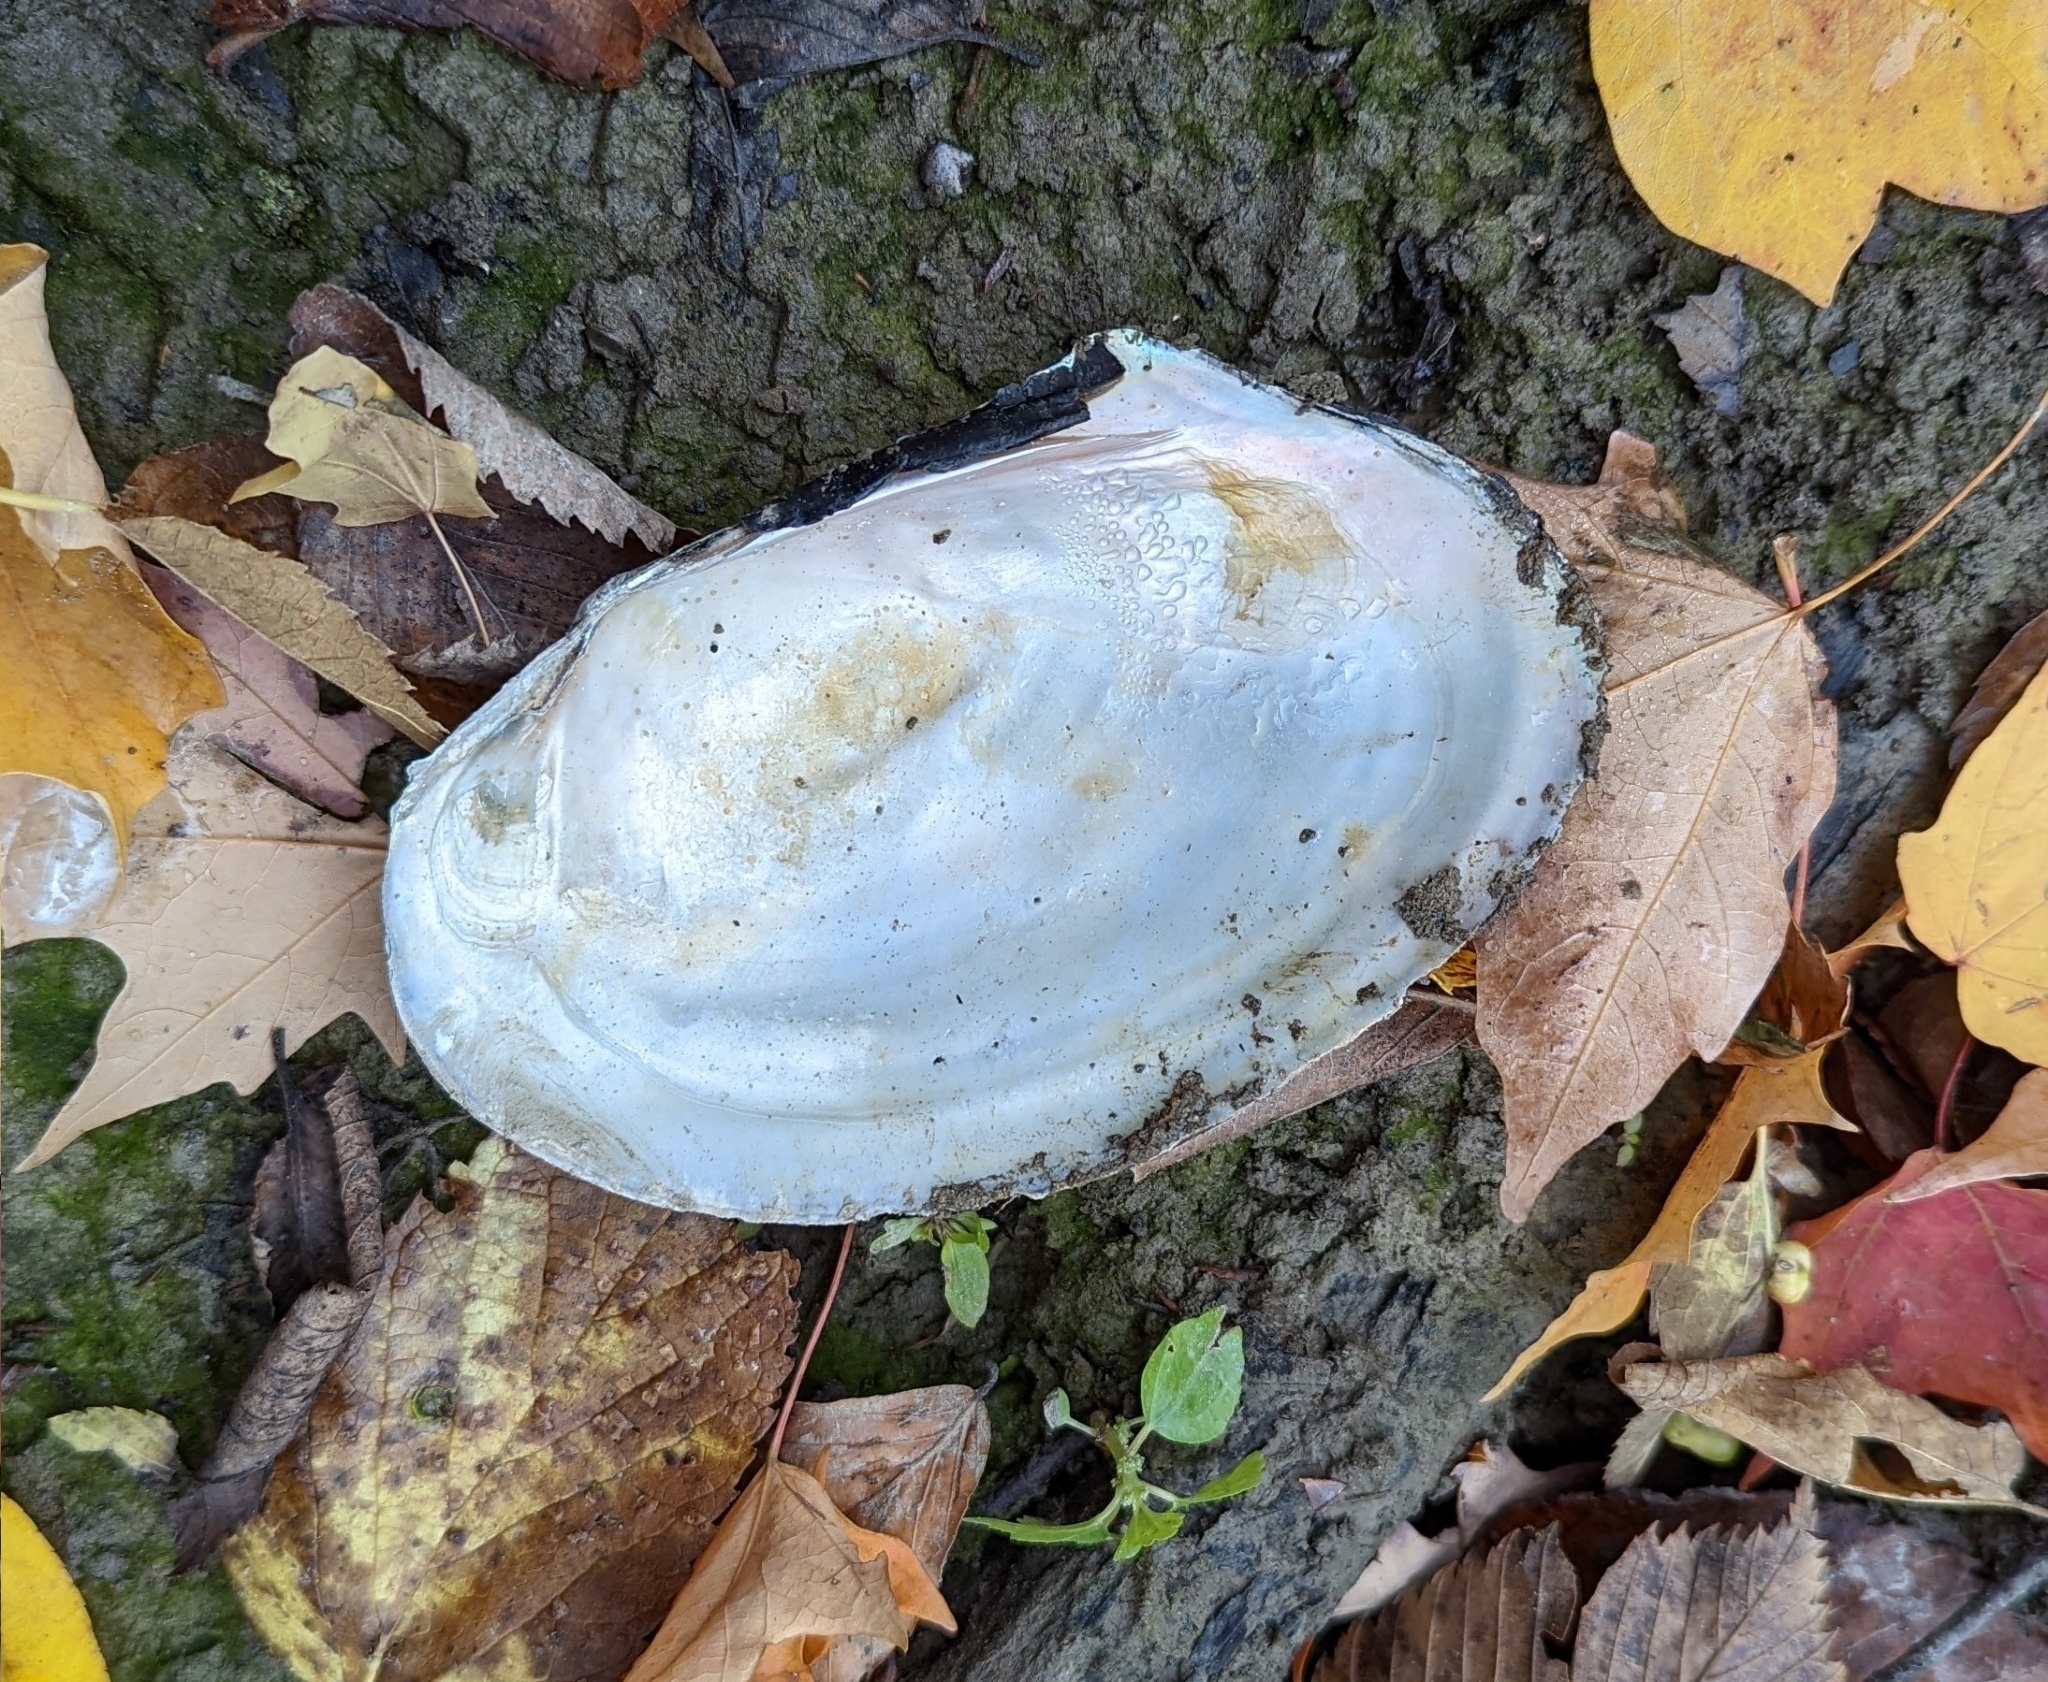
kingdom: Animalia
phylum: Mollusca
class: Bivalvia
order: Unionida
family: Unionidae
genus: Potamilus
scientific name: Potamilus fragilis
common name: Fragile papershell
